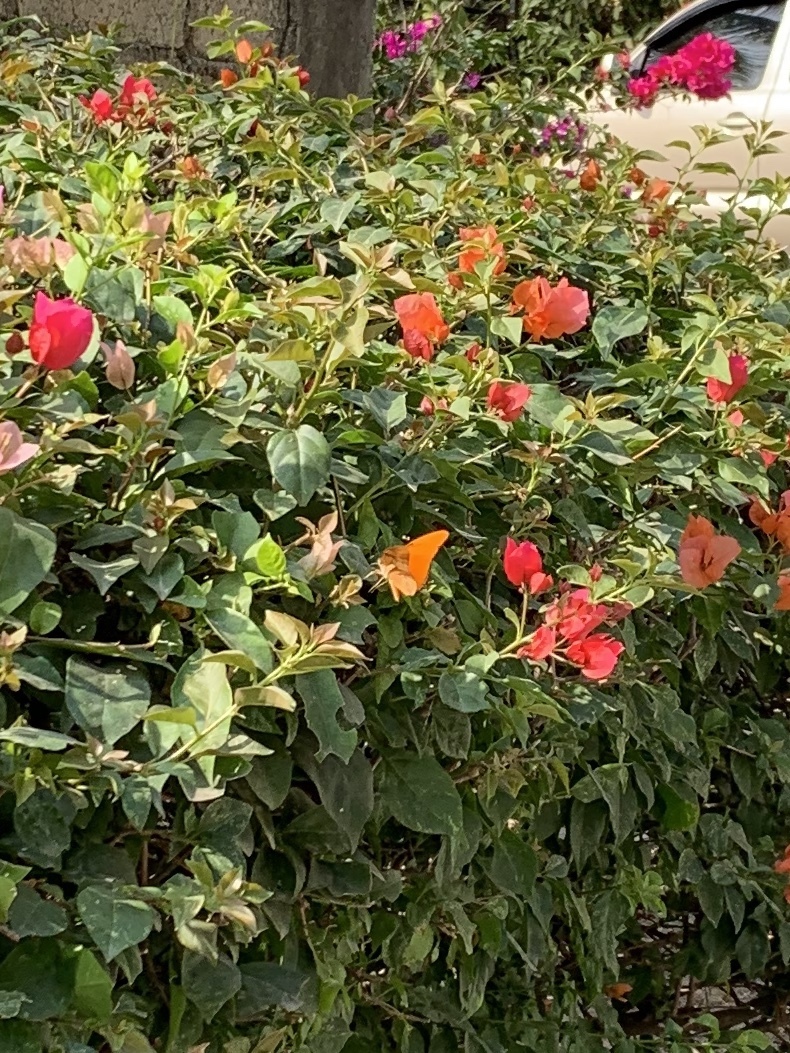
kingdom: Animalia
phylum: Arthropoda
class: Insecta
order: Lepidoptera
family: Nymphalidae
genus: Dryas
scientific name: Dryas iulia
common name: Flambeau
